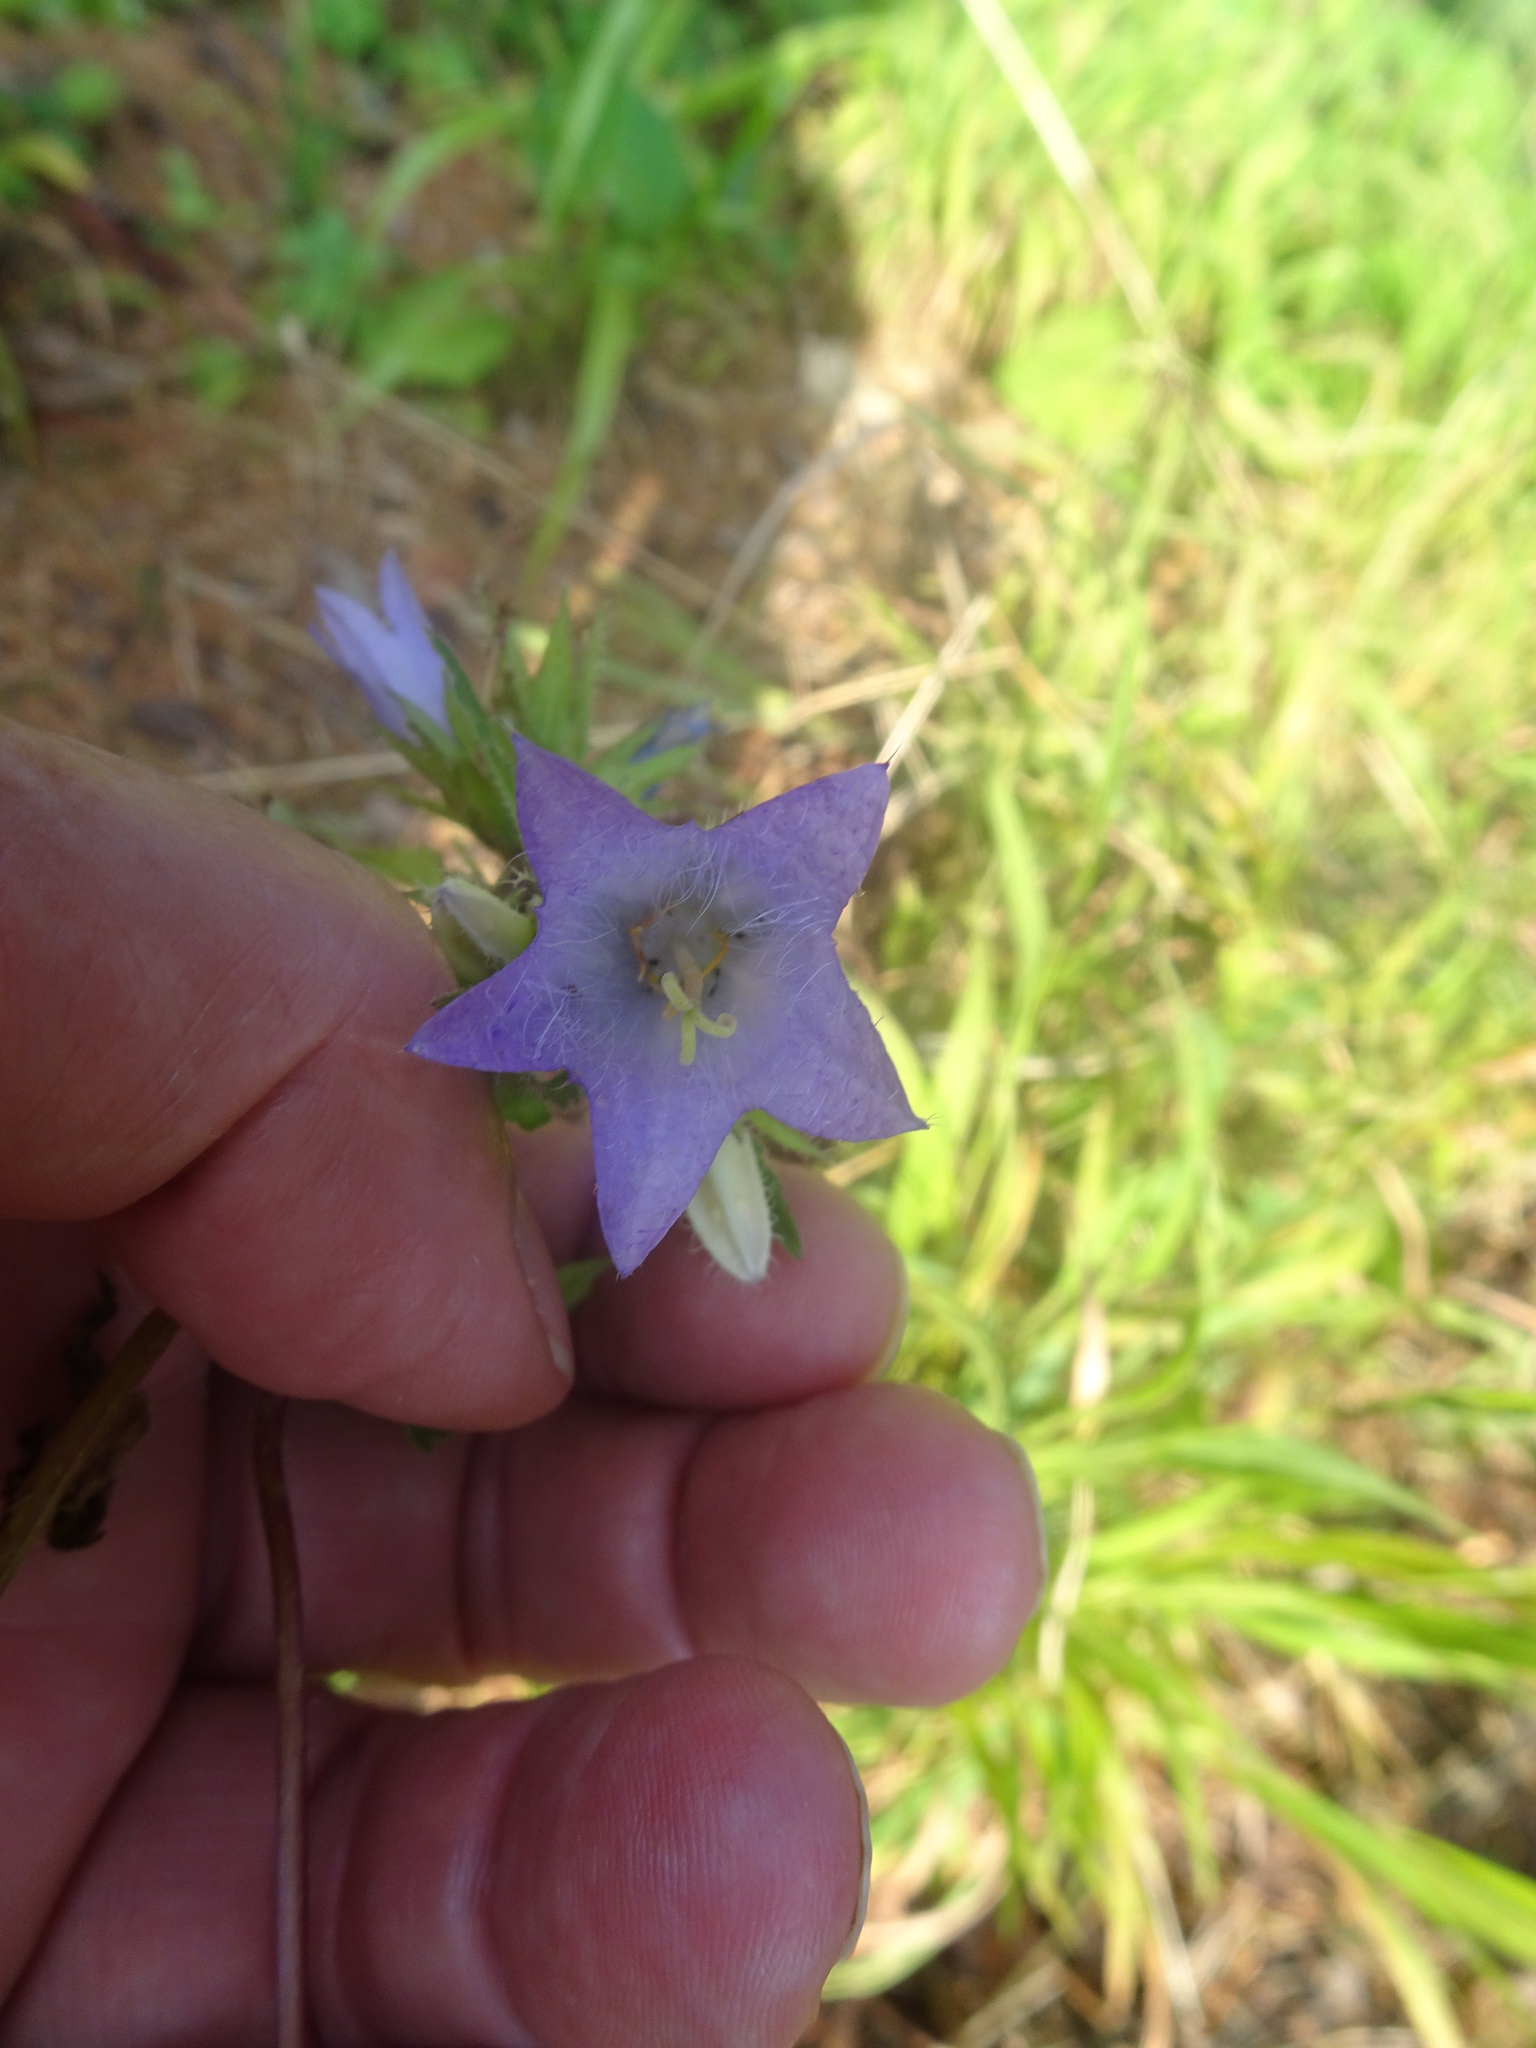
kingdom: Plantae
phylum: Tracheophyta
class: Magnoliopsida
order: Asterales
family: Campanulaceae
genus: Campanula
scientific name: Campanula trachelium
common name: Nettle-leaved bellflower
